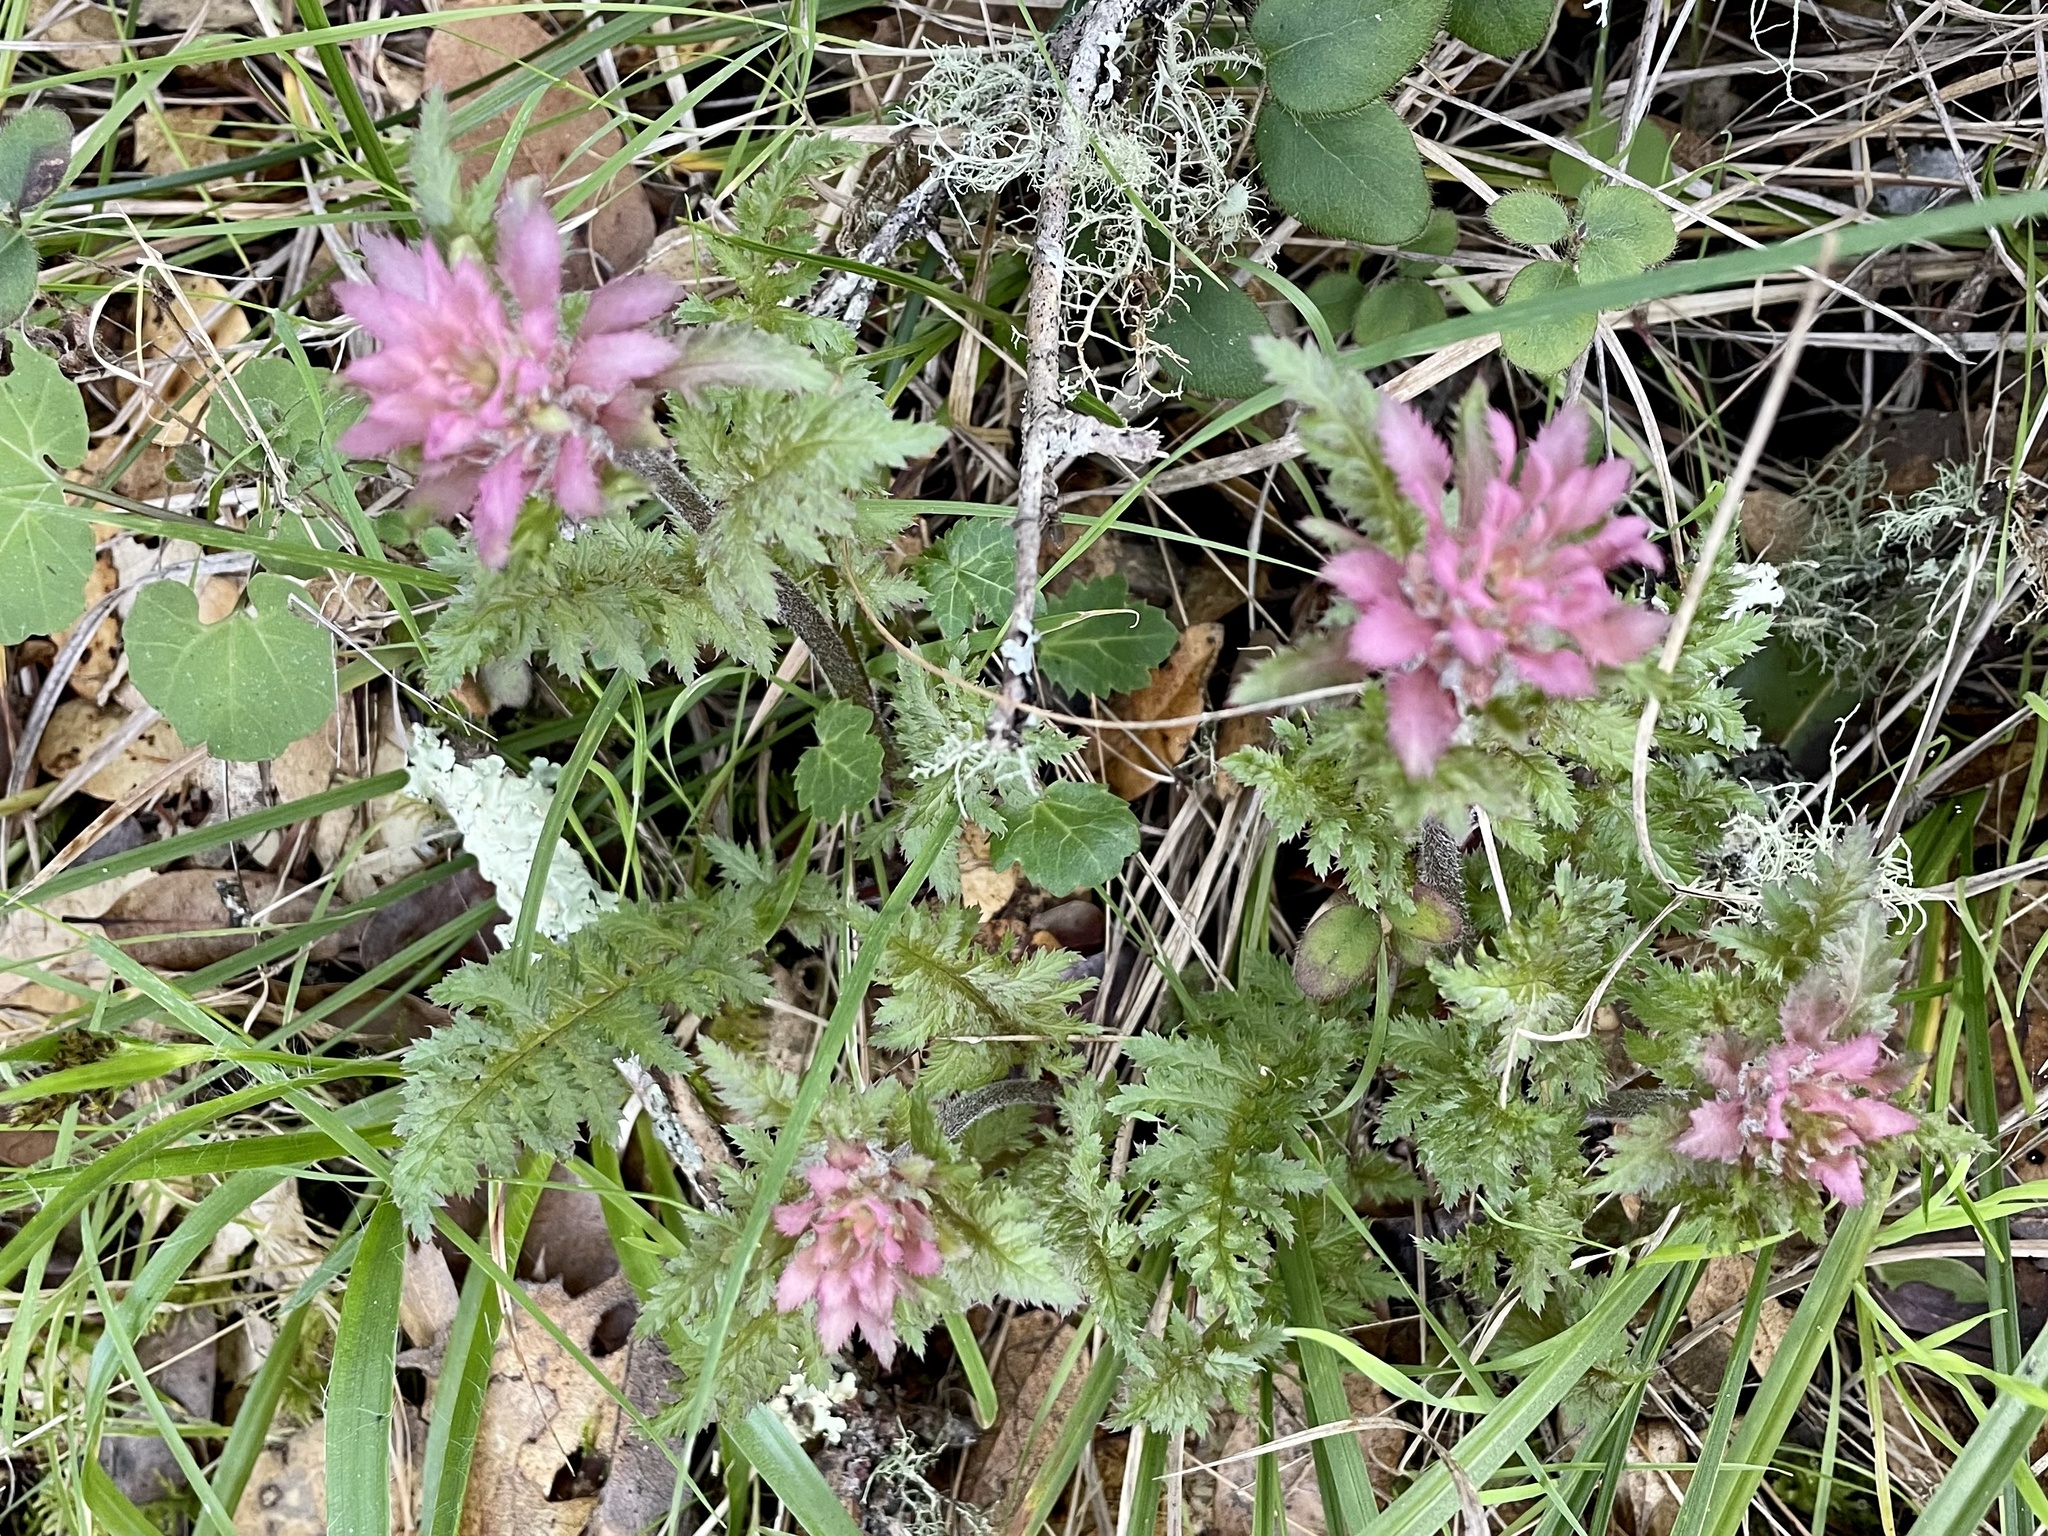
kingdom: Plantae
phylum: Tracheophyta
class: Magnoliopsida
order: Lamiales
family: Orobanchaceae
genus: Pedicularis
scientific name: Pedicularis densiflora
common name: Indian warrior
